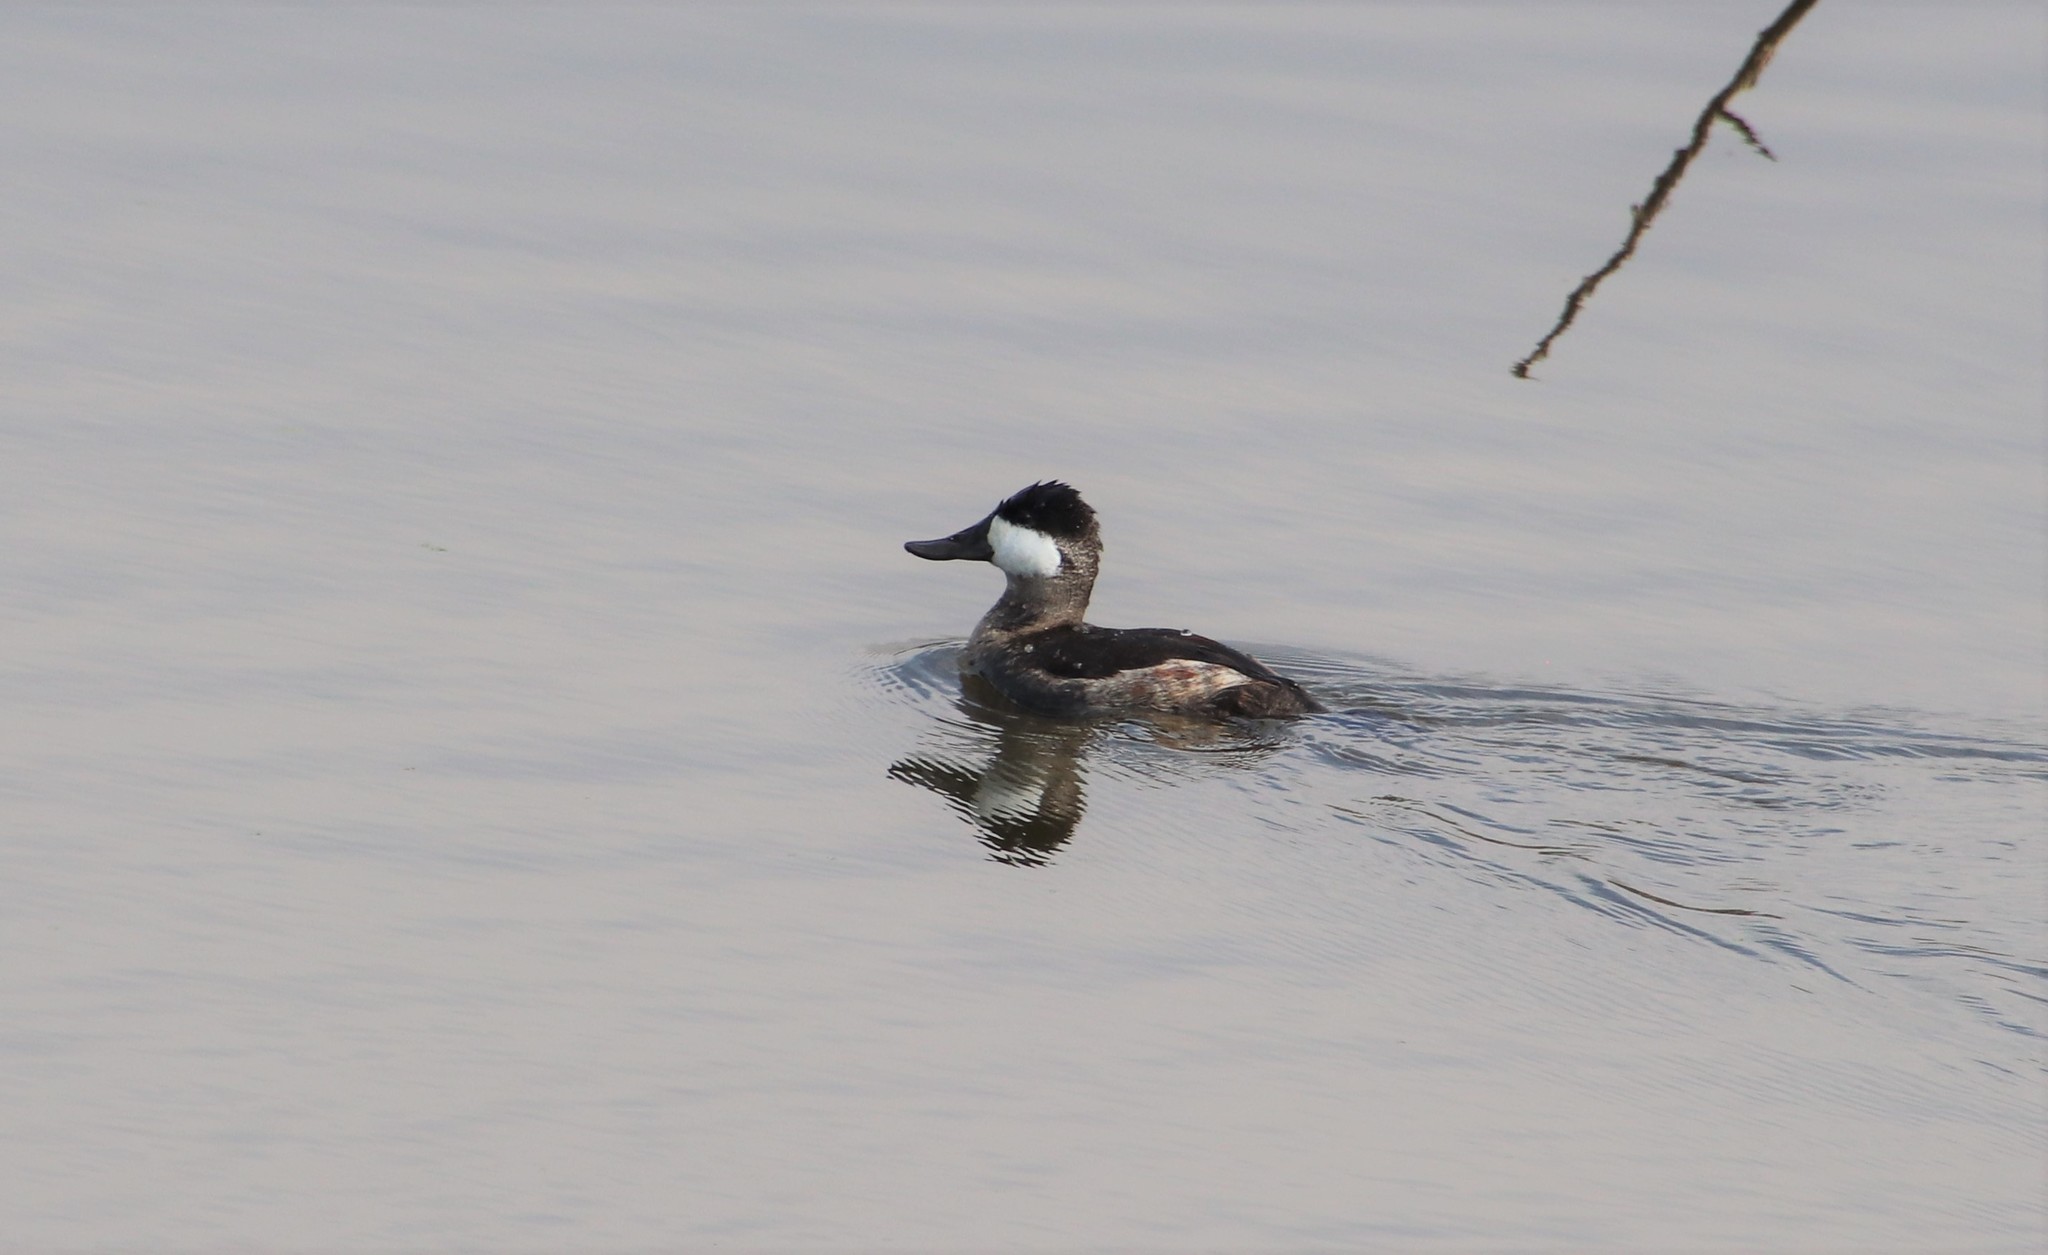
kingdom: Animalia
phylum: Chordata
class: Aves
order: Anseriformes
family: Anatidae
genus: Oxyura
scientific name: Oxyura jamaicensis
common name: Ruddy duck
